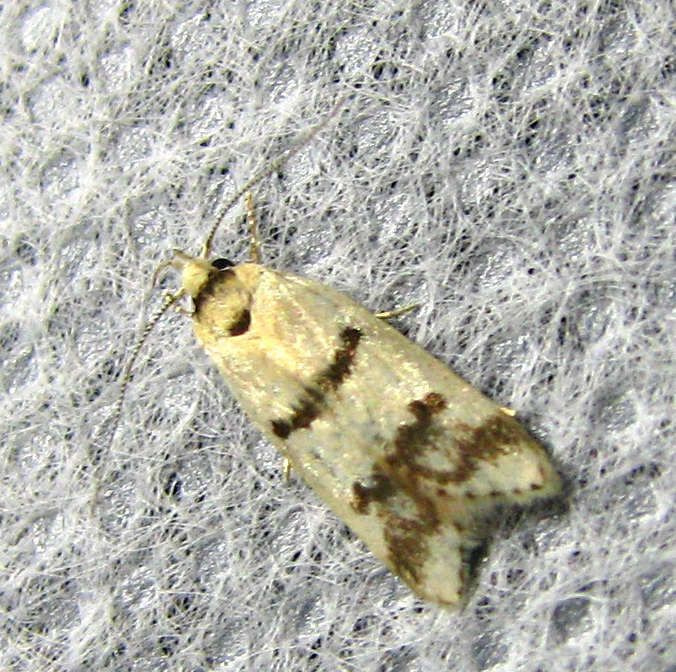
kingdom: Animalia
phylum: Arthropoda
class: Insecta
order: Lepidoptera
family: Oecophoridae
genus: Compsotropha
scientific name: Compsotropha strophiella
